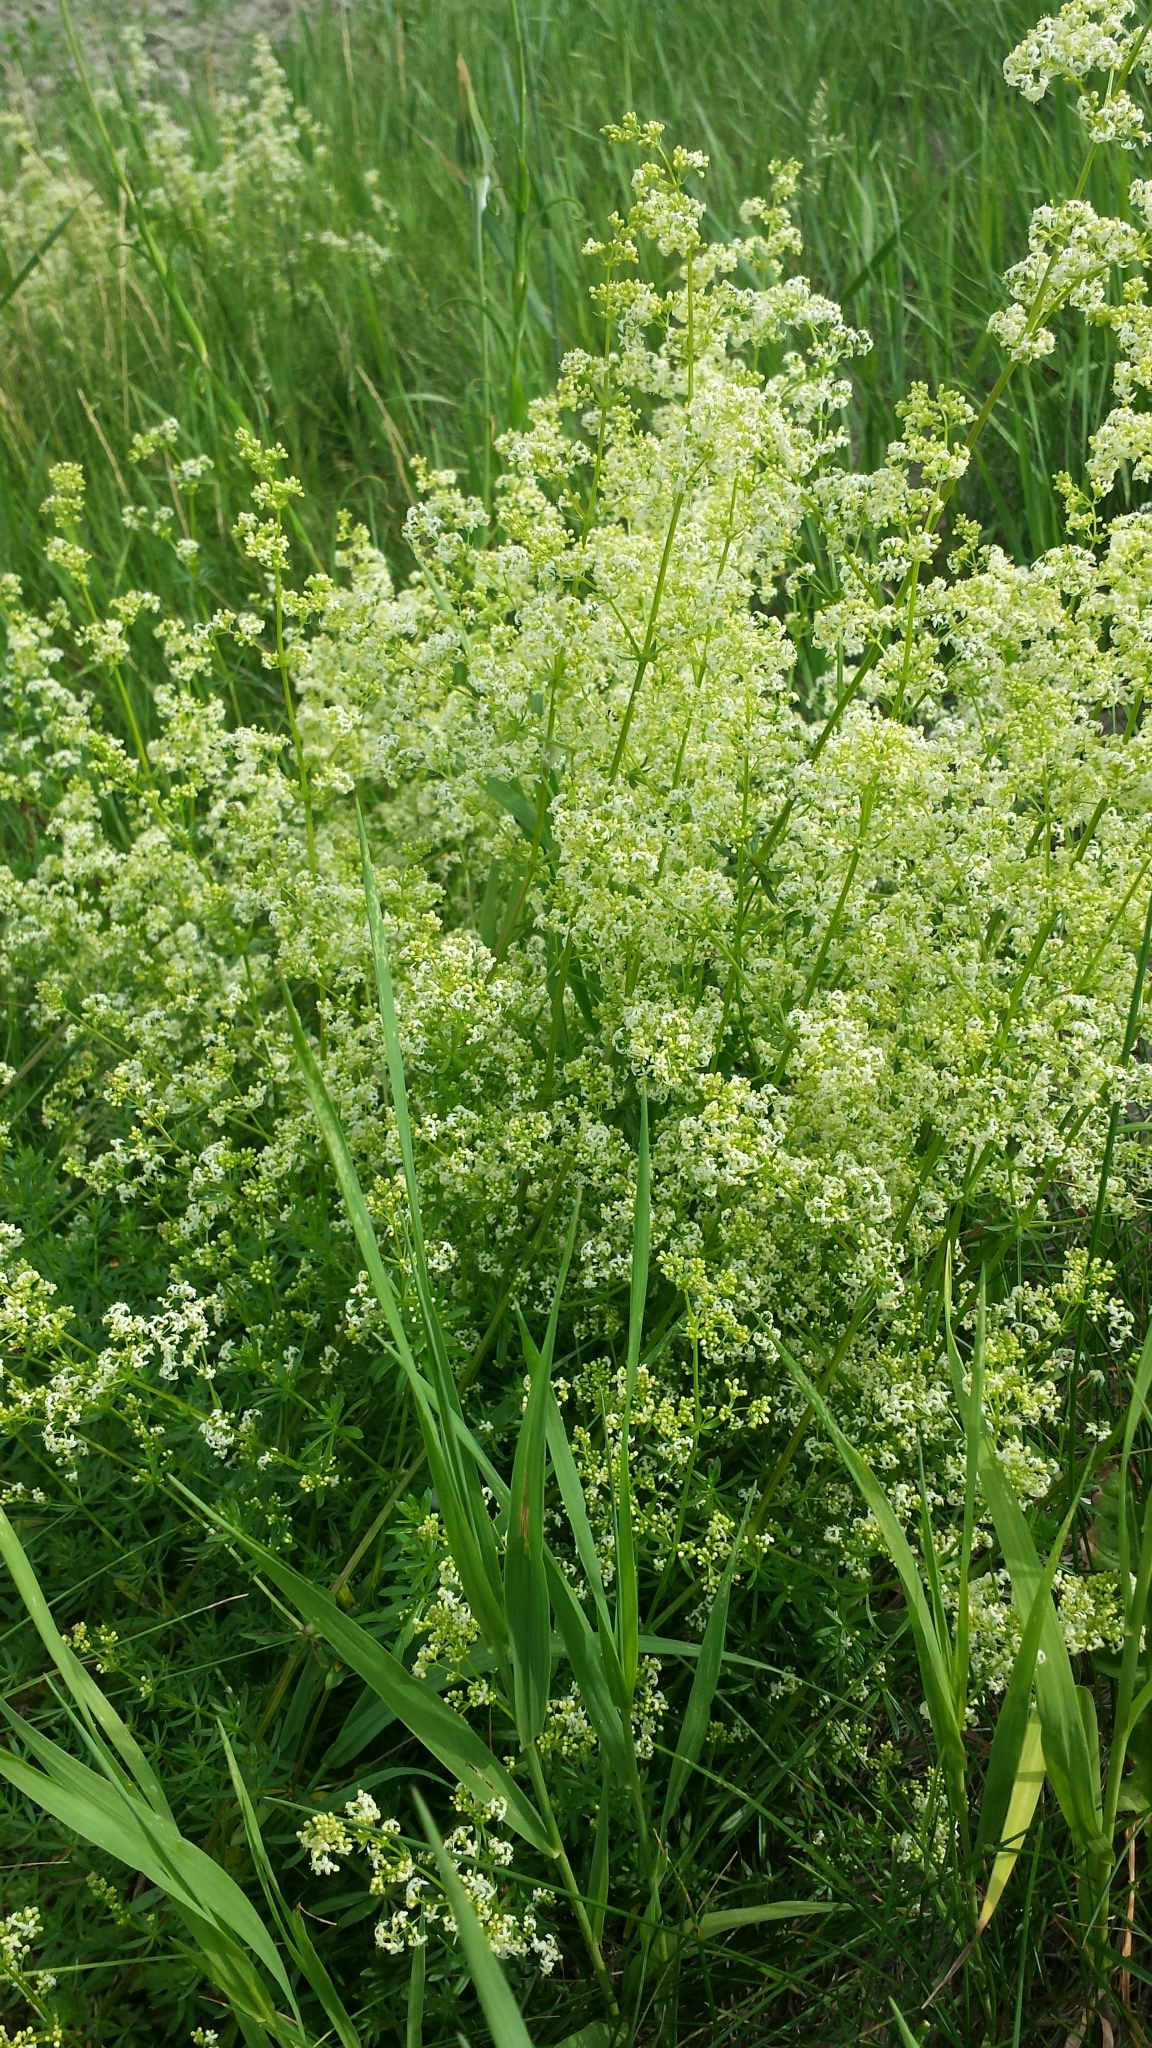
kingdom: Plantae
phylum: Tracheophyta
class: Magnoliopsida
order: Gentianales
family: Rubiaceae
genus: Galium
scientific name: Galium mollugo
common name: Hedge bedstraw
